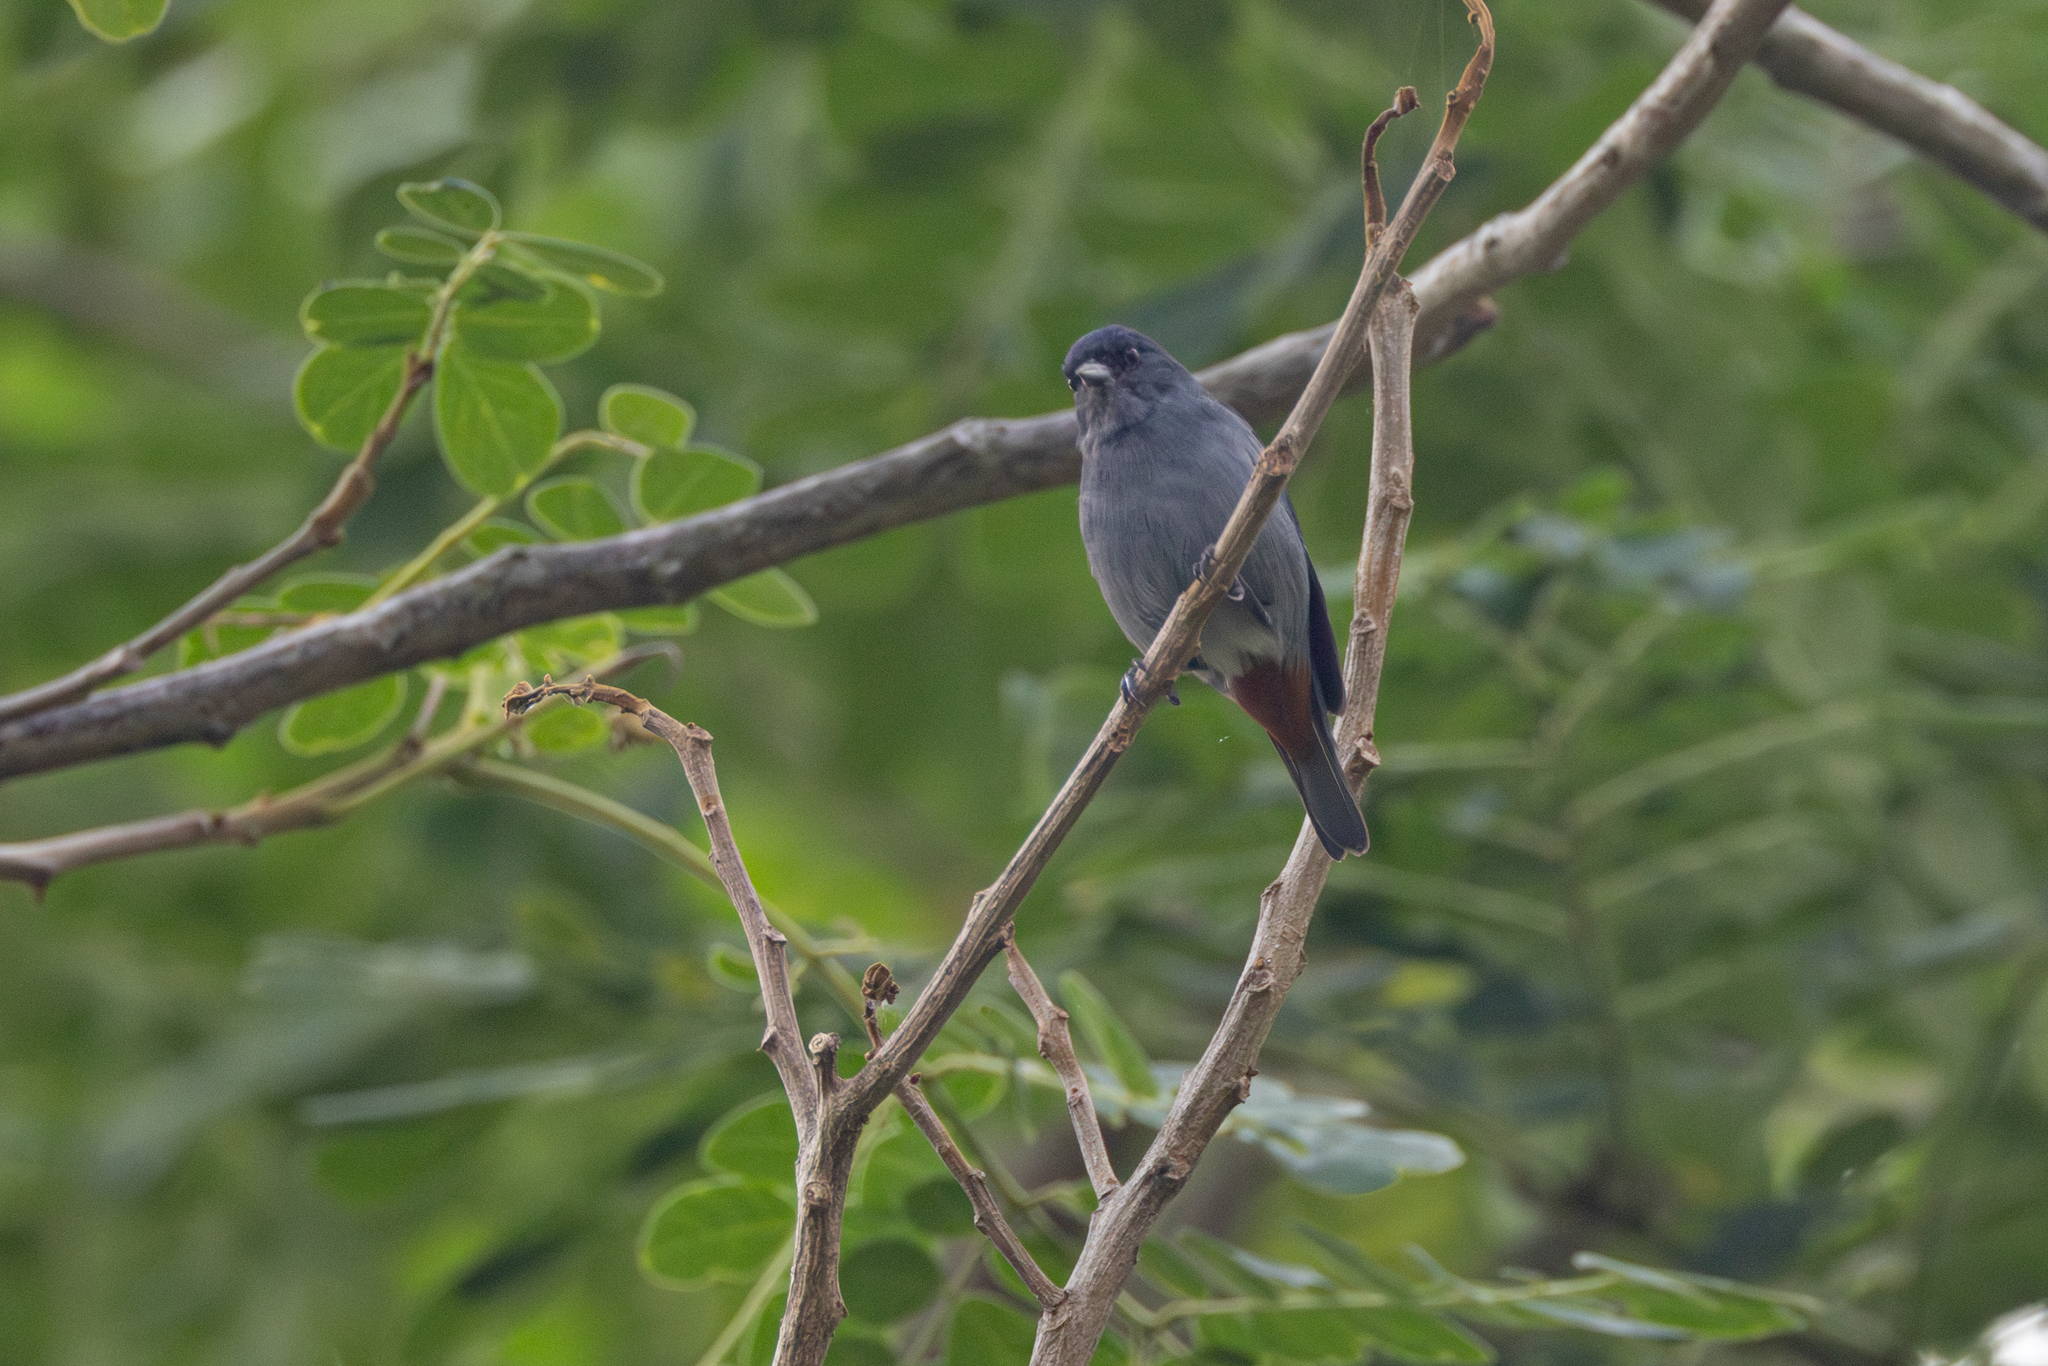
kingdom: Animalia
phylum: Chordata
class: Aves
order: Passeriformes
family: Thraupidae
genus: Conirostrum
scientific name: Conirostrum speciosum
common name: Chestnut-vented conebill
